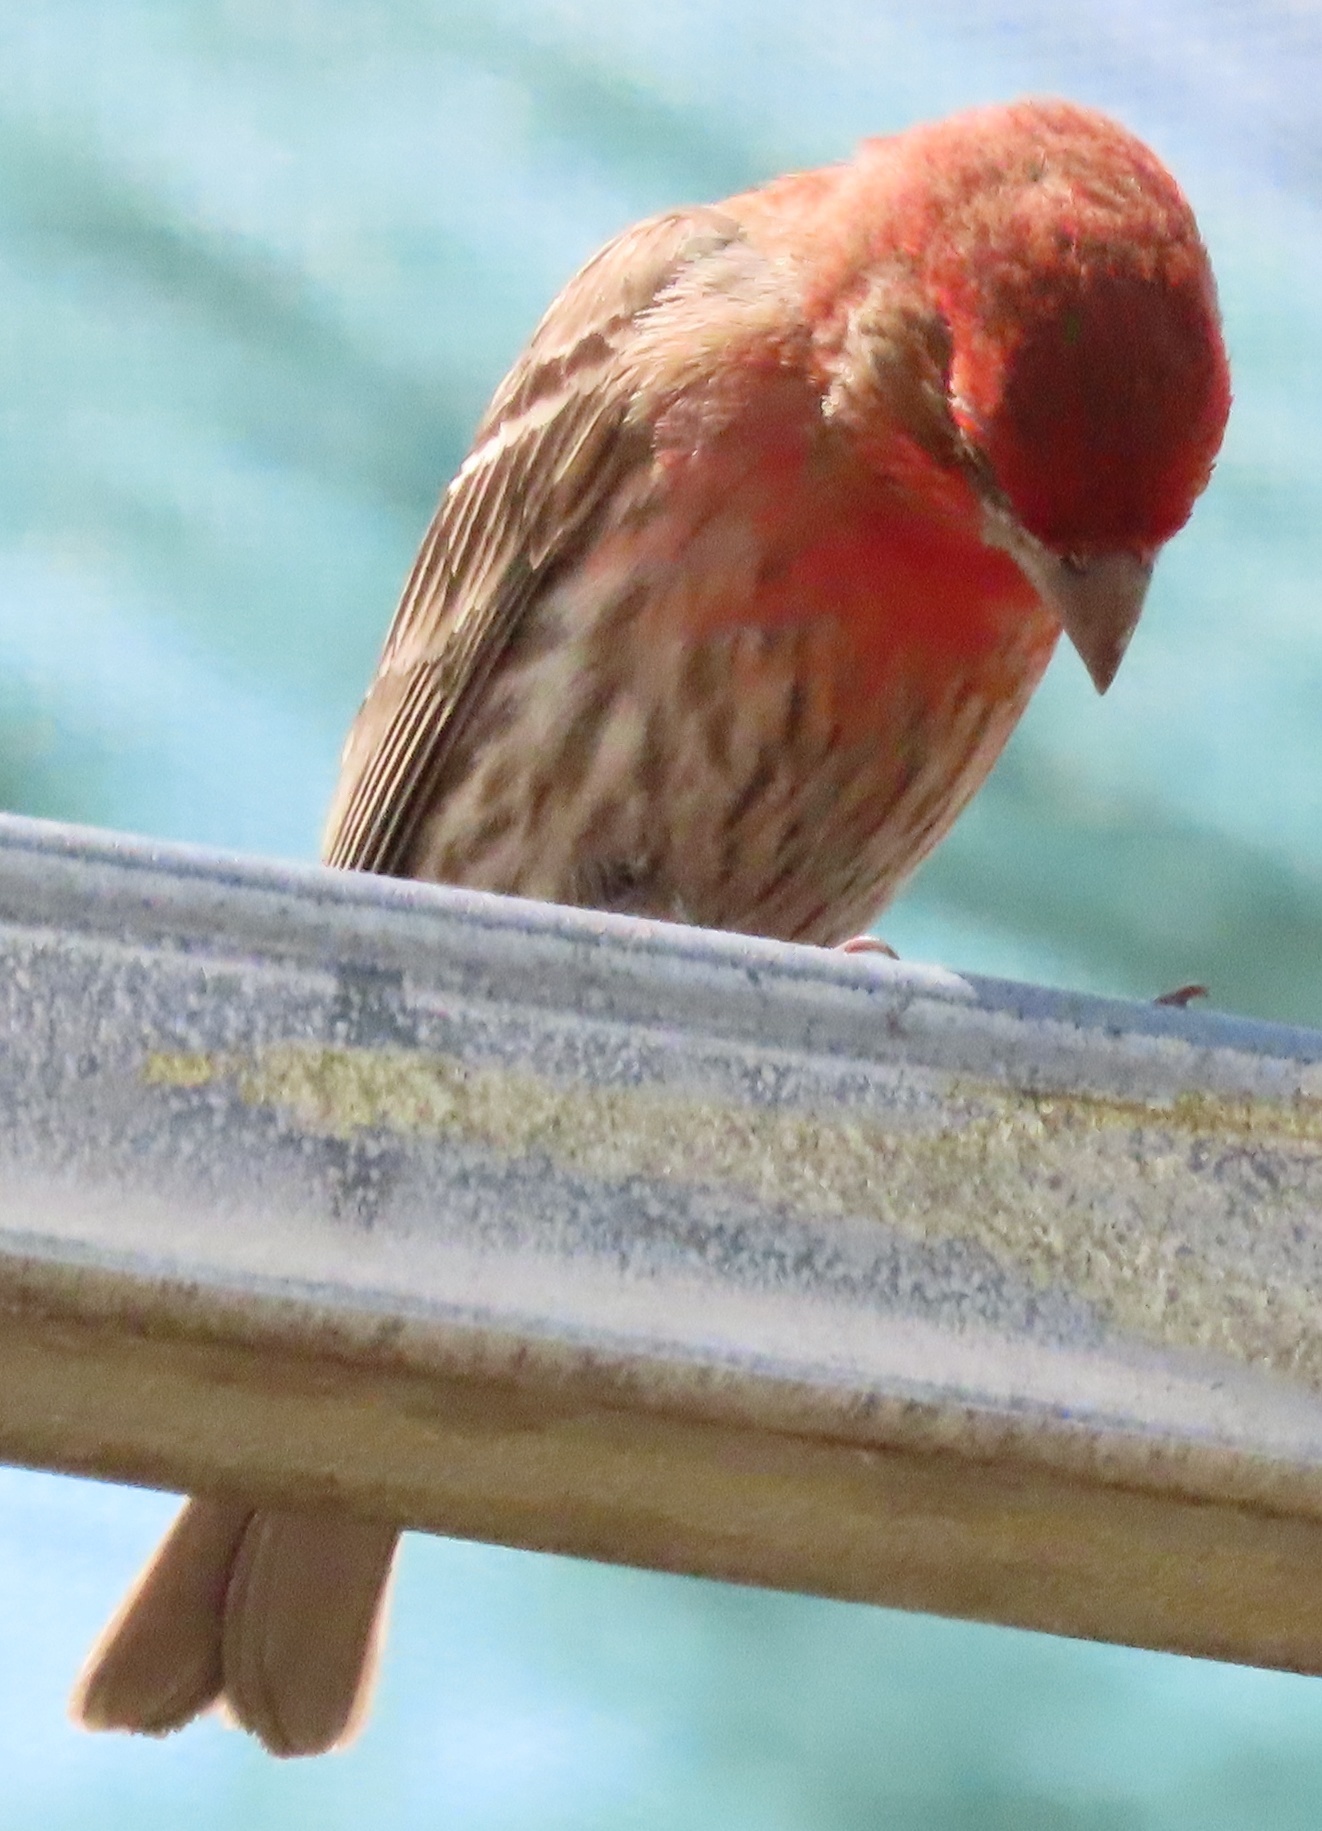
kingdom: Animalia
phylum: Chordata
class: Aves
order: Passeriformes
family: Fringillidae
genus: Haemorhous
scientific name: Haemorhous mexicanus
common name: House finch
